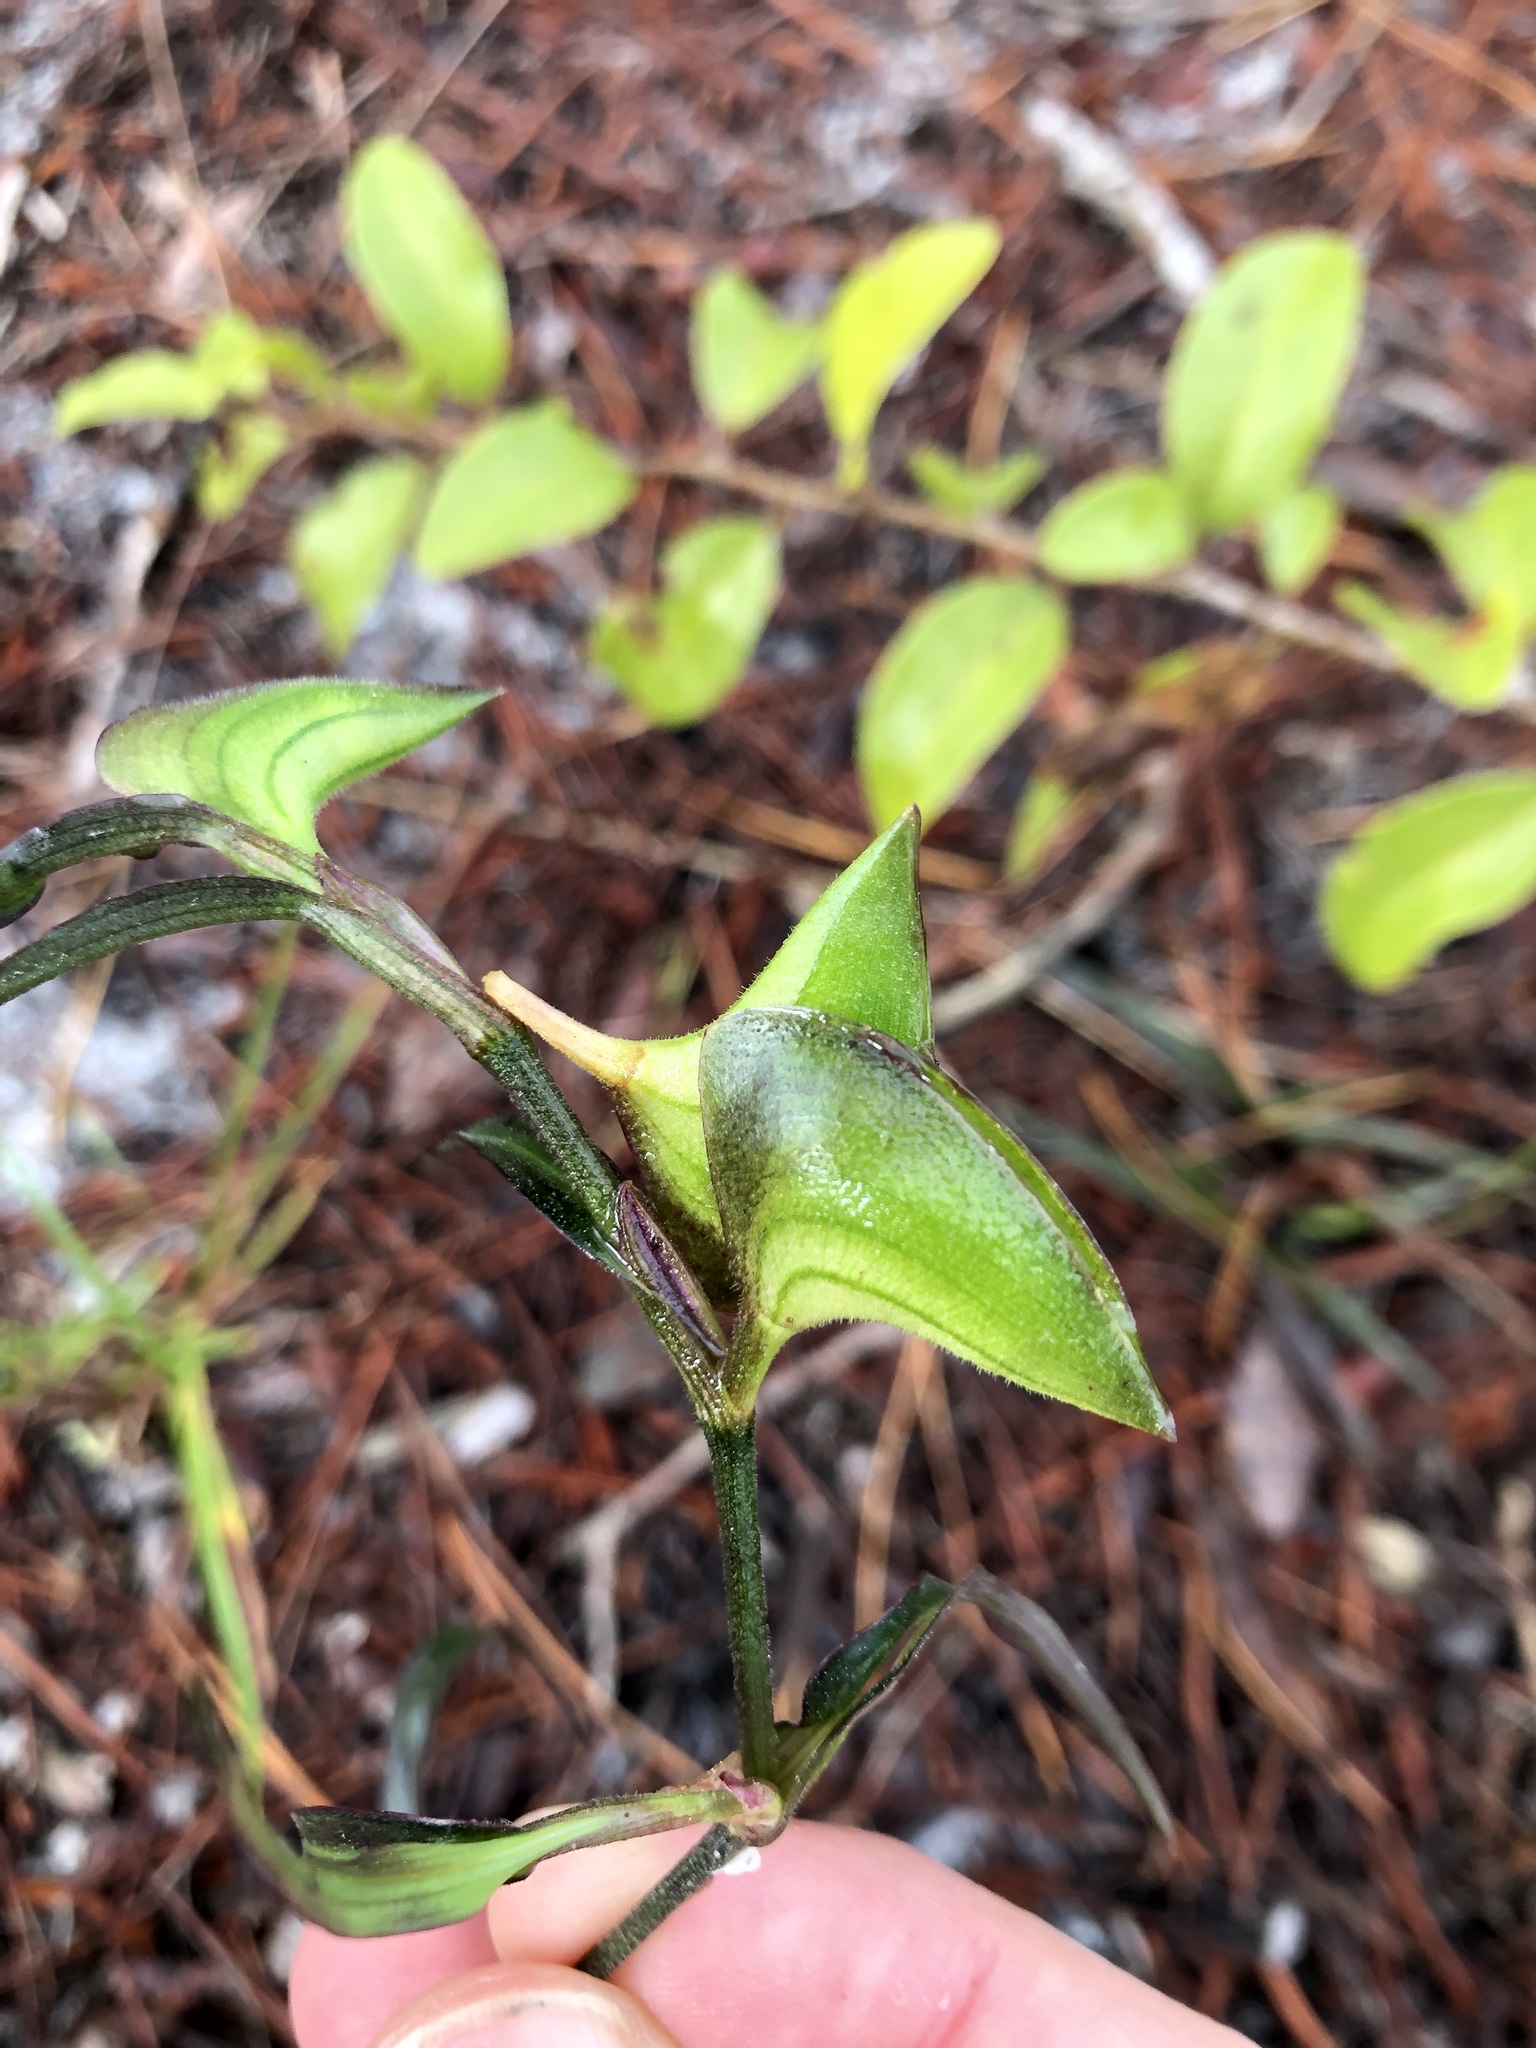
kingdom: Plantae
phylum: Tracheophyta
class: Liliopsida
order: Commelinales
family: Commelinaceae
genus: Commelina
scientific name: Commelina erecta
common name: Blousel blommetjie
